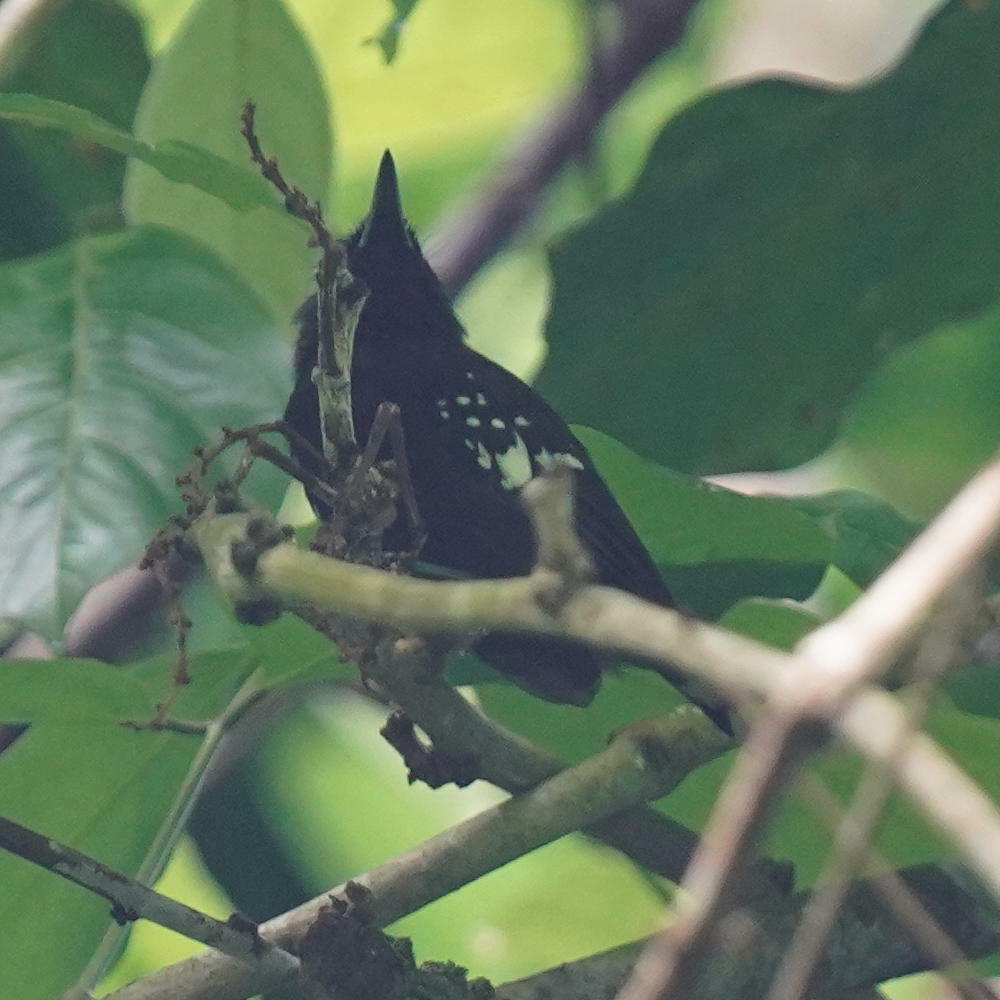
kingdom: Animalia
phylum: Chordata
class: Aves
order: Passeriformes
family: Thamnophilidae
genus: Microrhopias
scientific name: Microrhopias quixensis
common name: Dot-winged antwren
